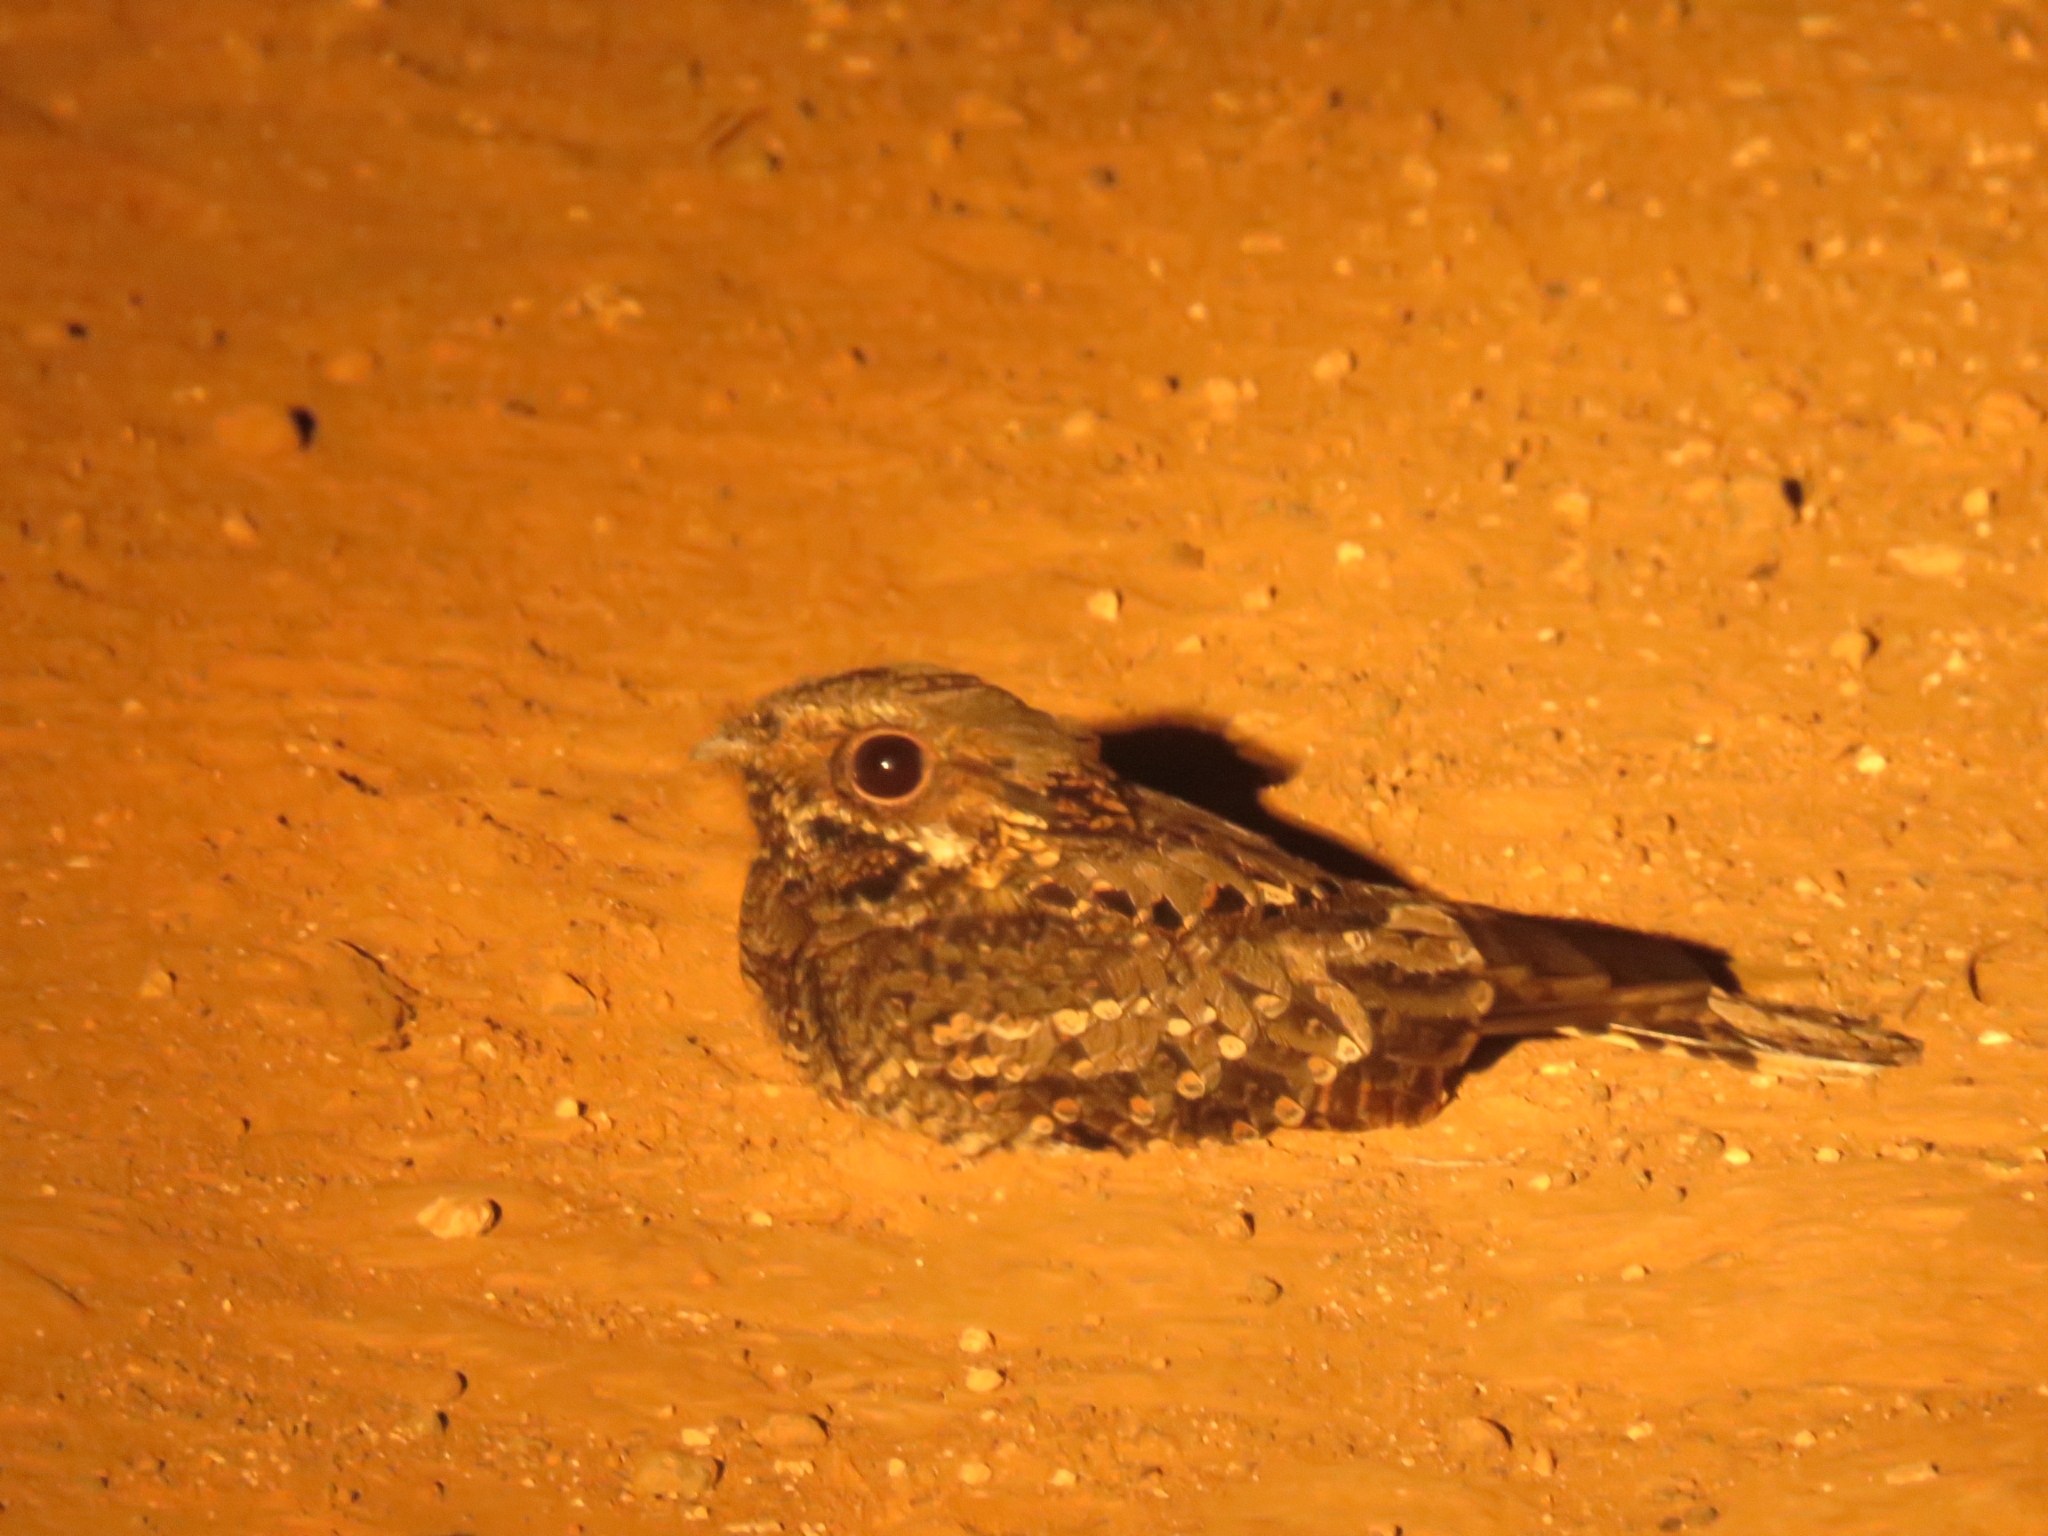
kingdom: Animalia
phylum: Chordata
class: Aves
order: Caprimulgiformes
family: Caprimulgidae
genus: Caprimulgus
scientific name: Caprimulgus pectoralis
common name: Fiery-necked nightjar
